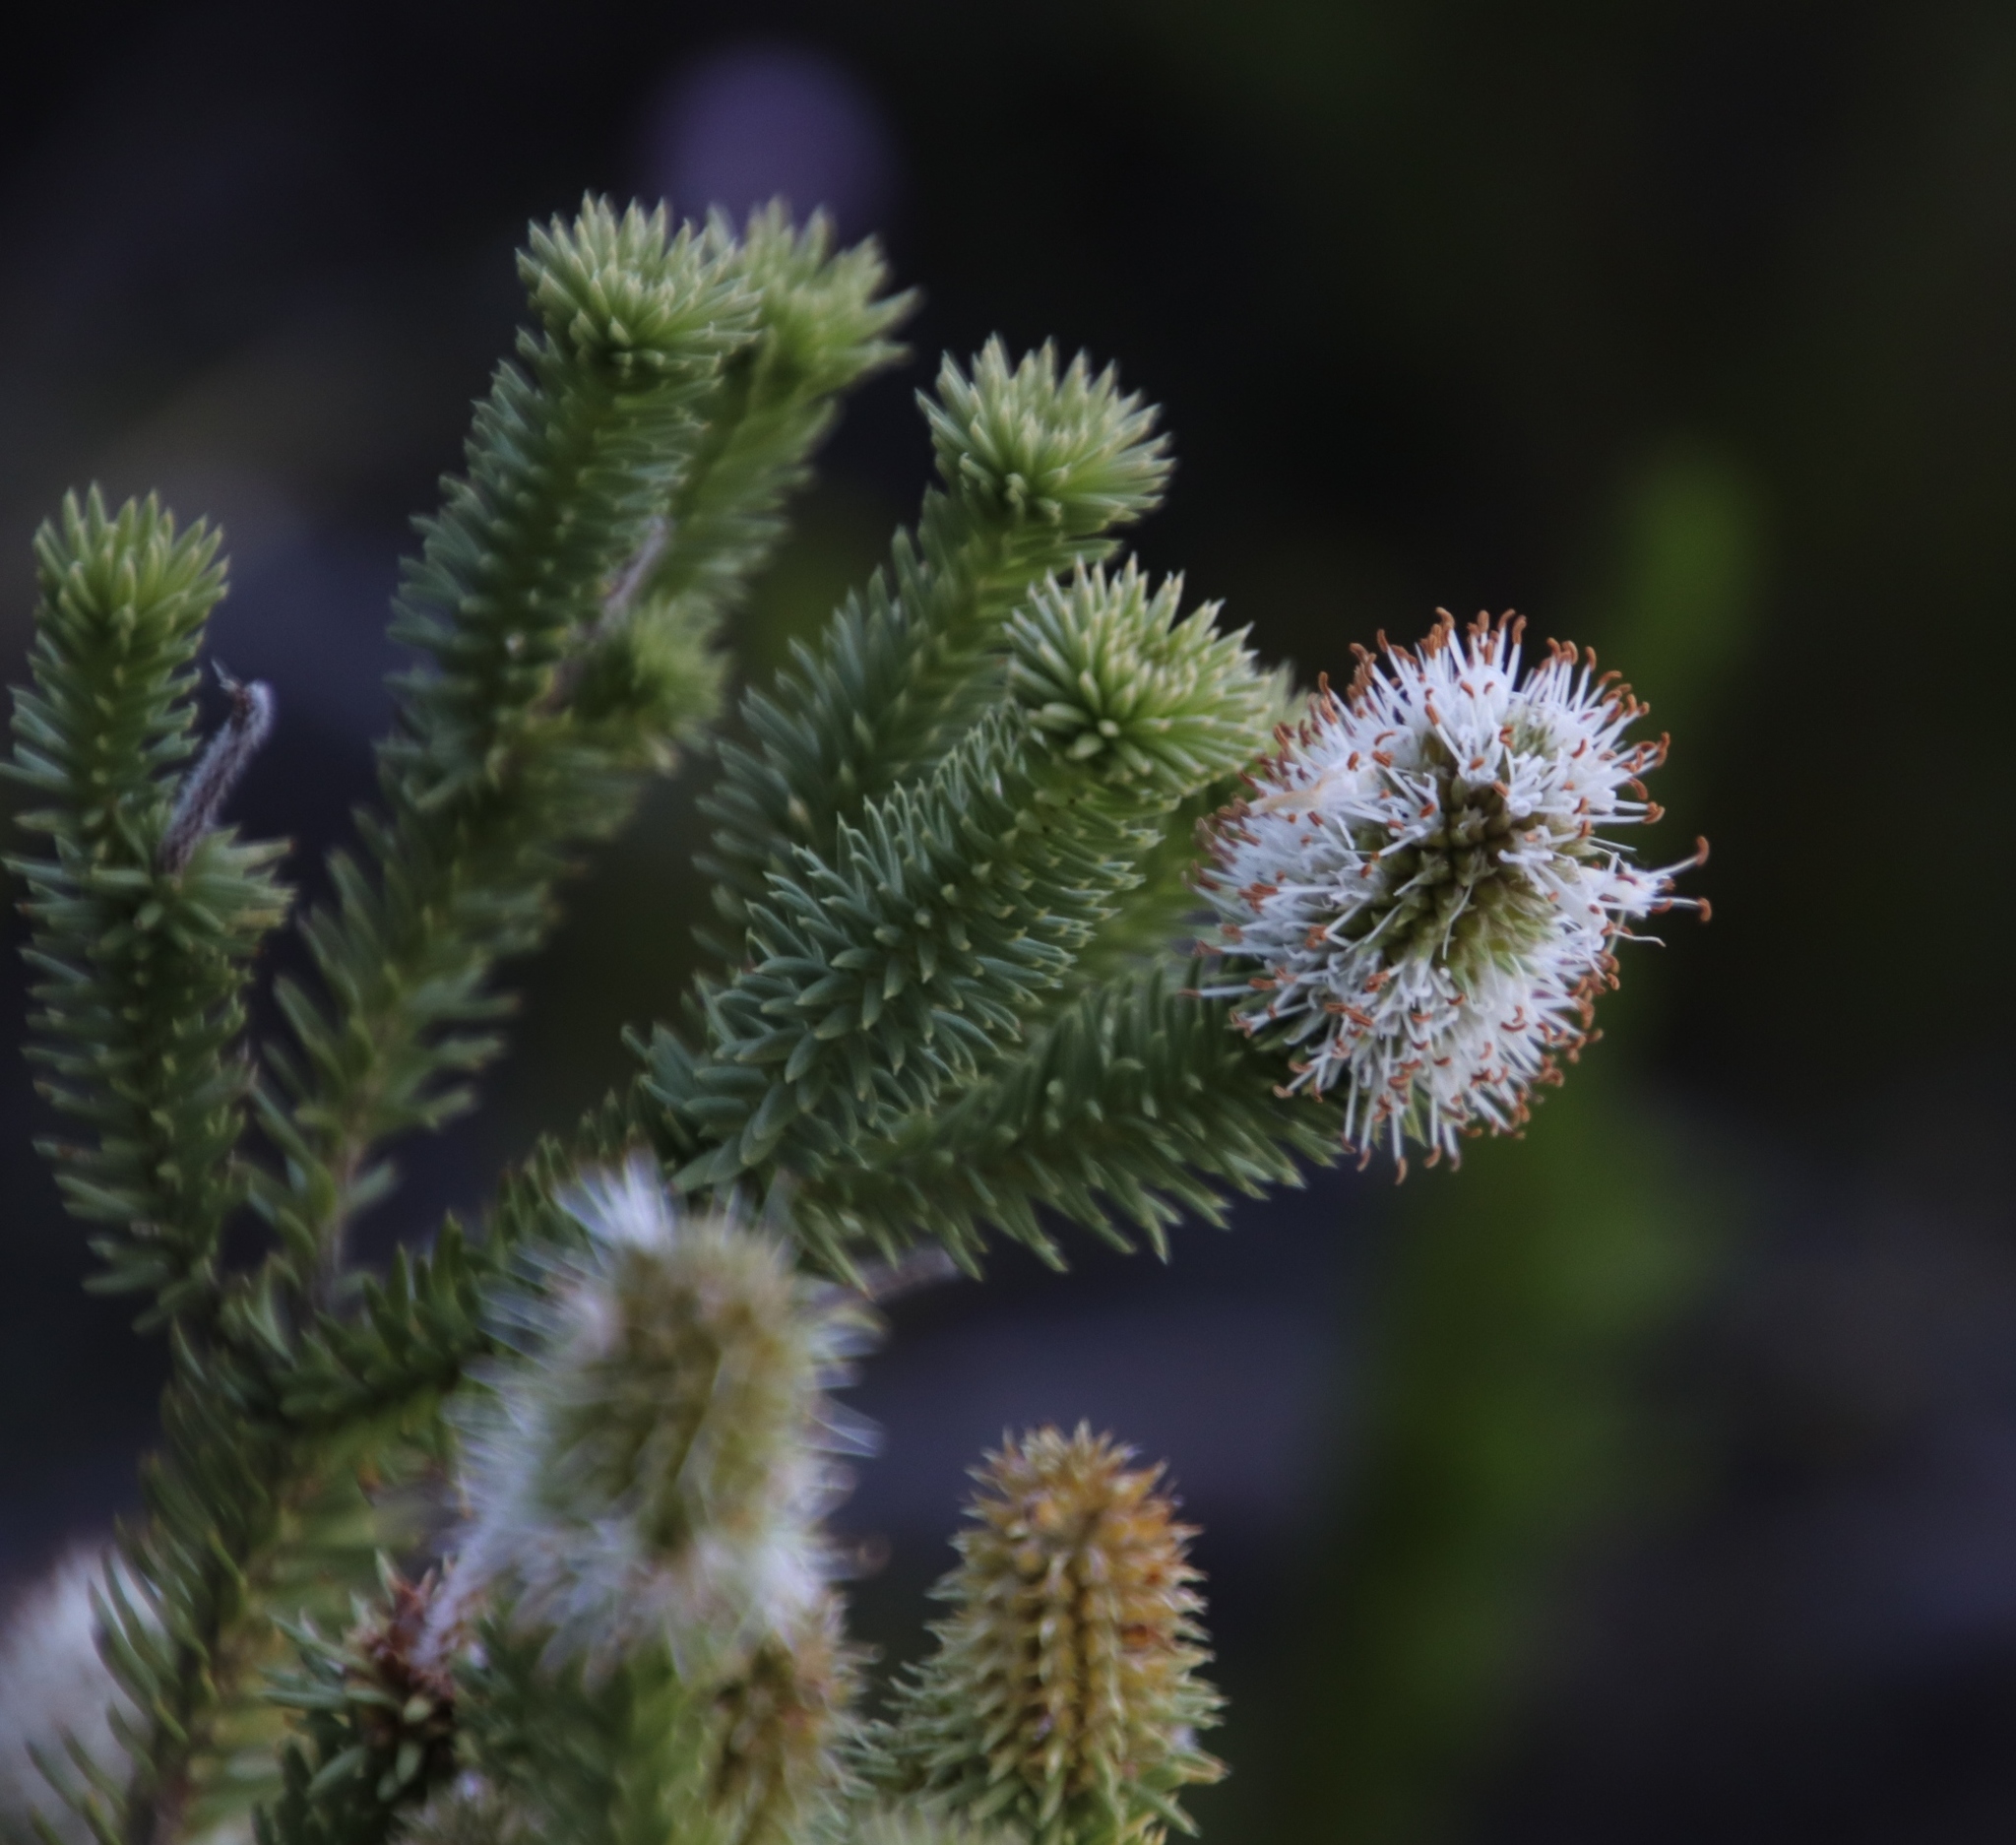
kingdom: Plantae
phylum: Tracheophyta
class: Magnoliopsida
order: Lamiales
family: Stilbaceae
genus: Stilbe
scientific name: Stilbe vestita
